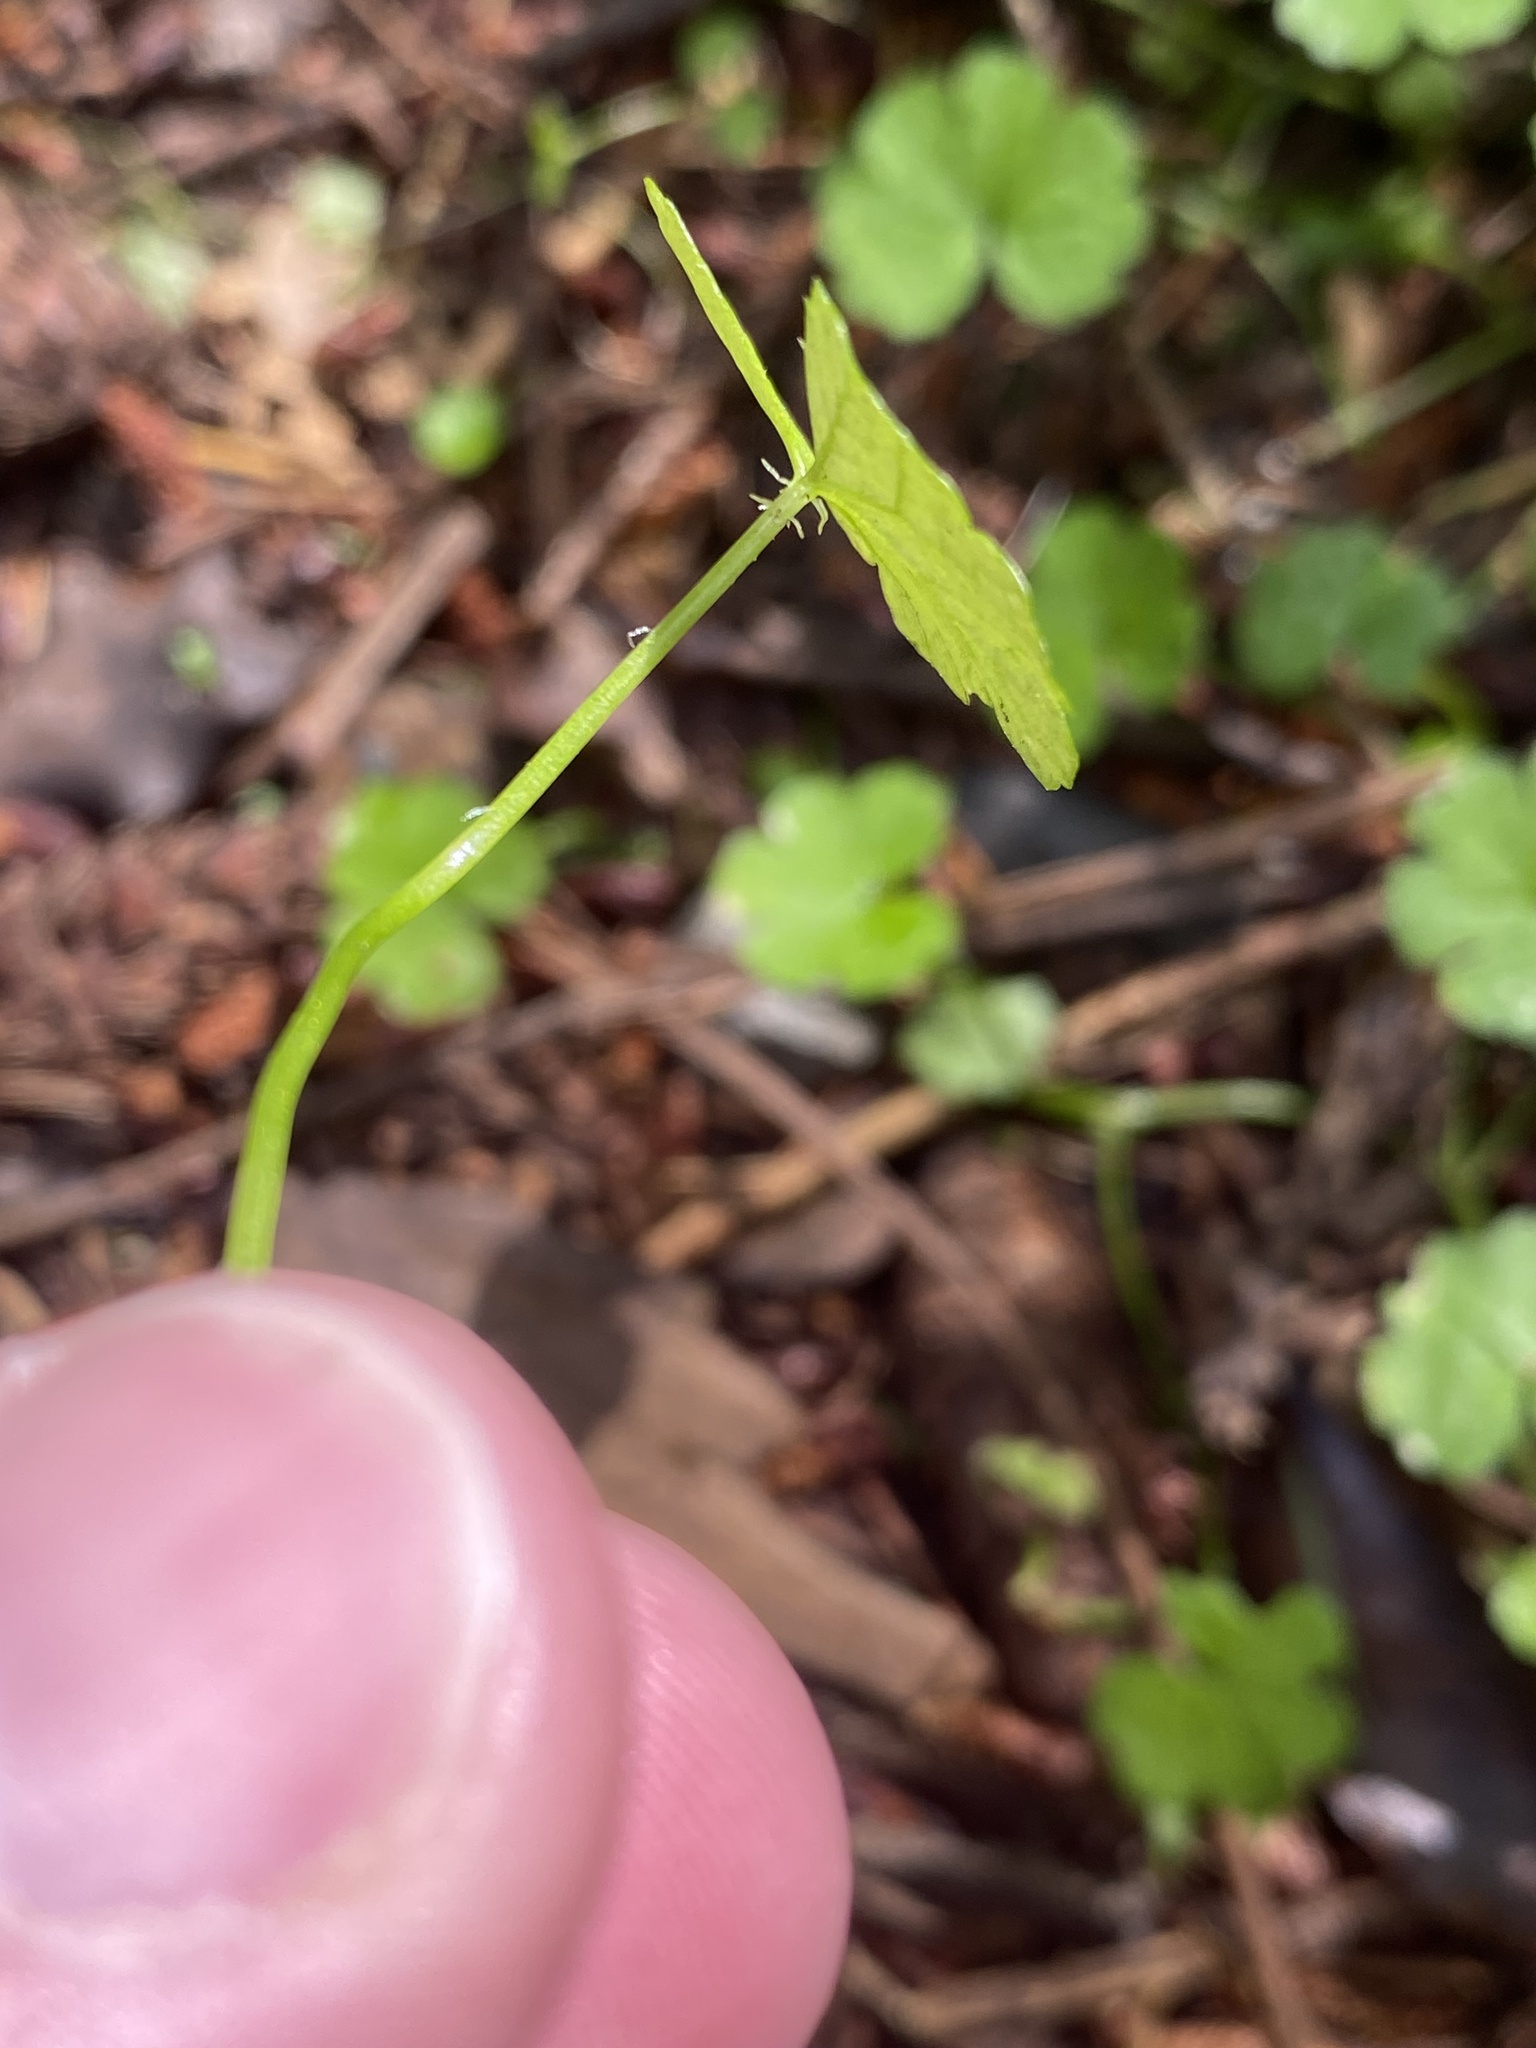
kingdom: Plantae
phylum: Tracheophyta
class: Magnoliopsida
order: Apiales
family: Araliaceae
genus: Hydrocotyle
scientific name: Hydrocotyle heteromeria
